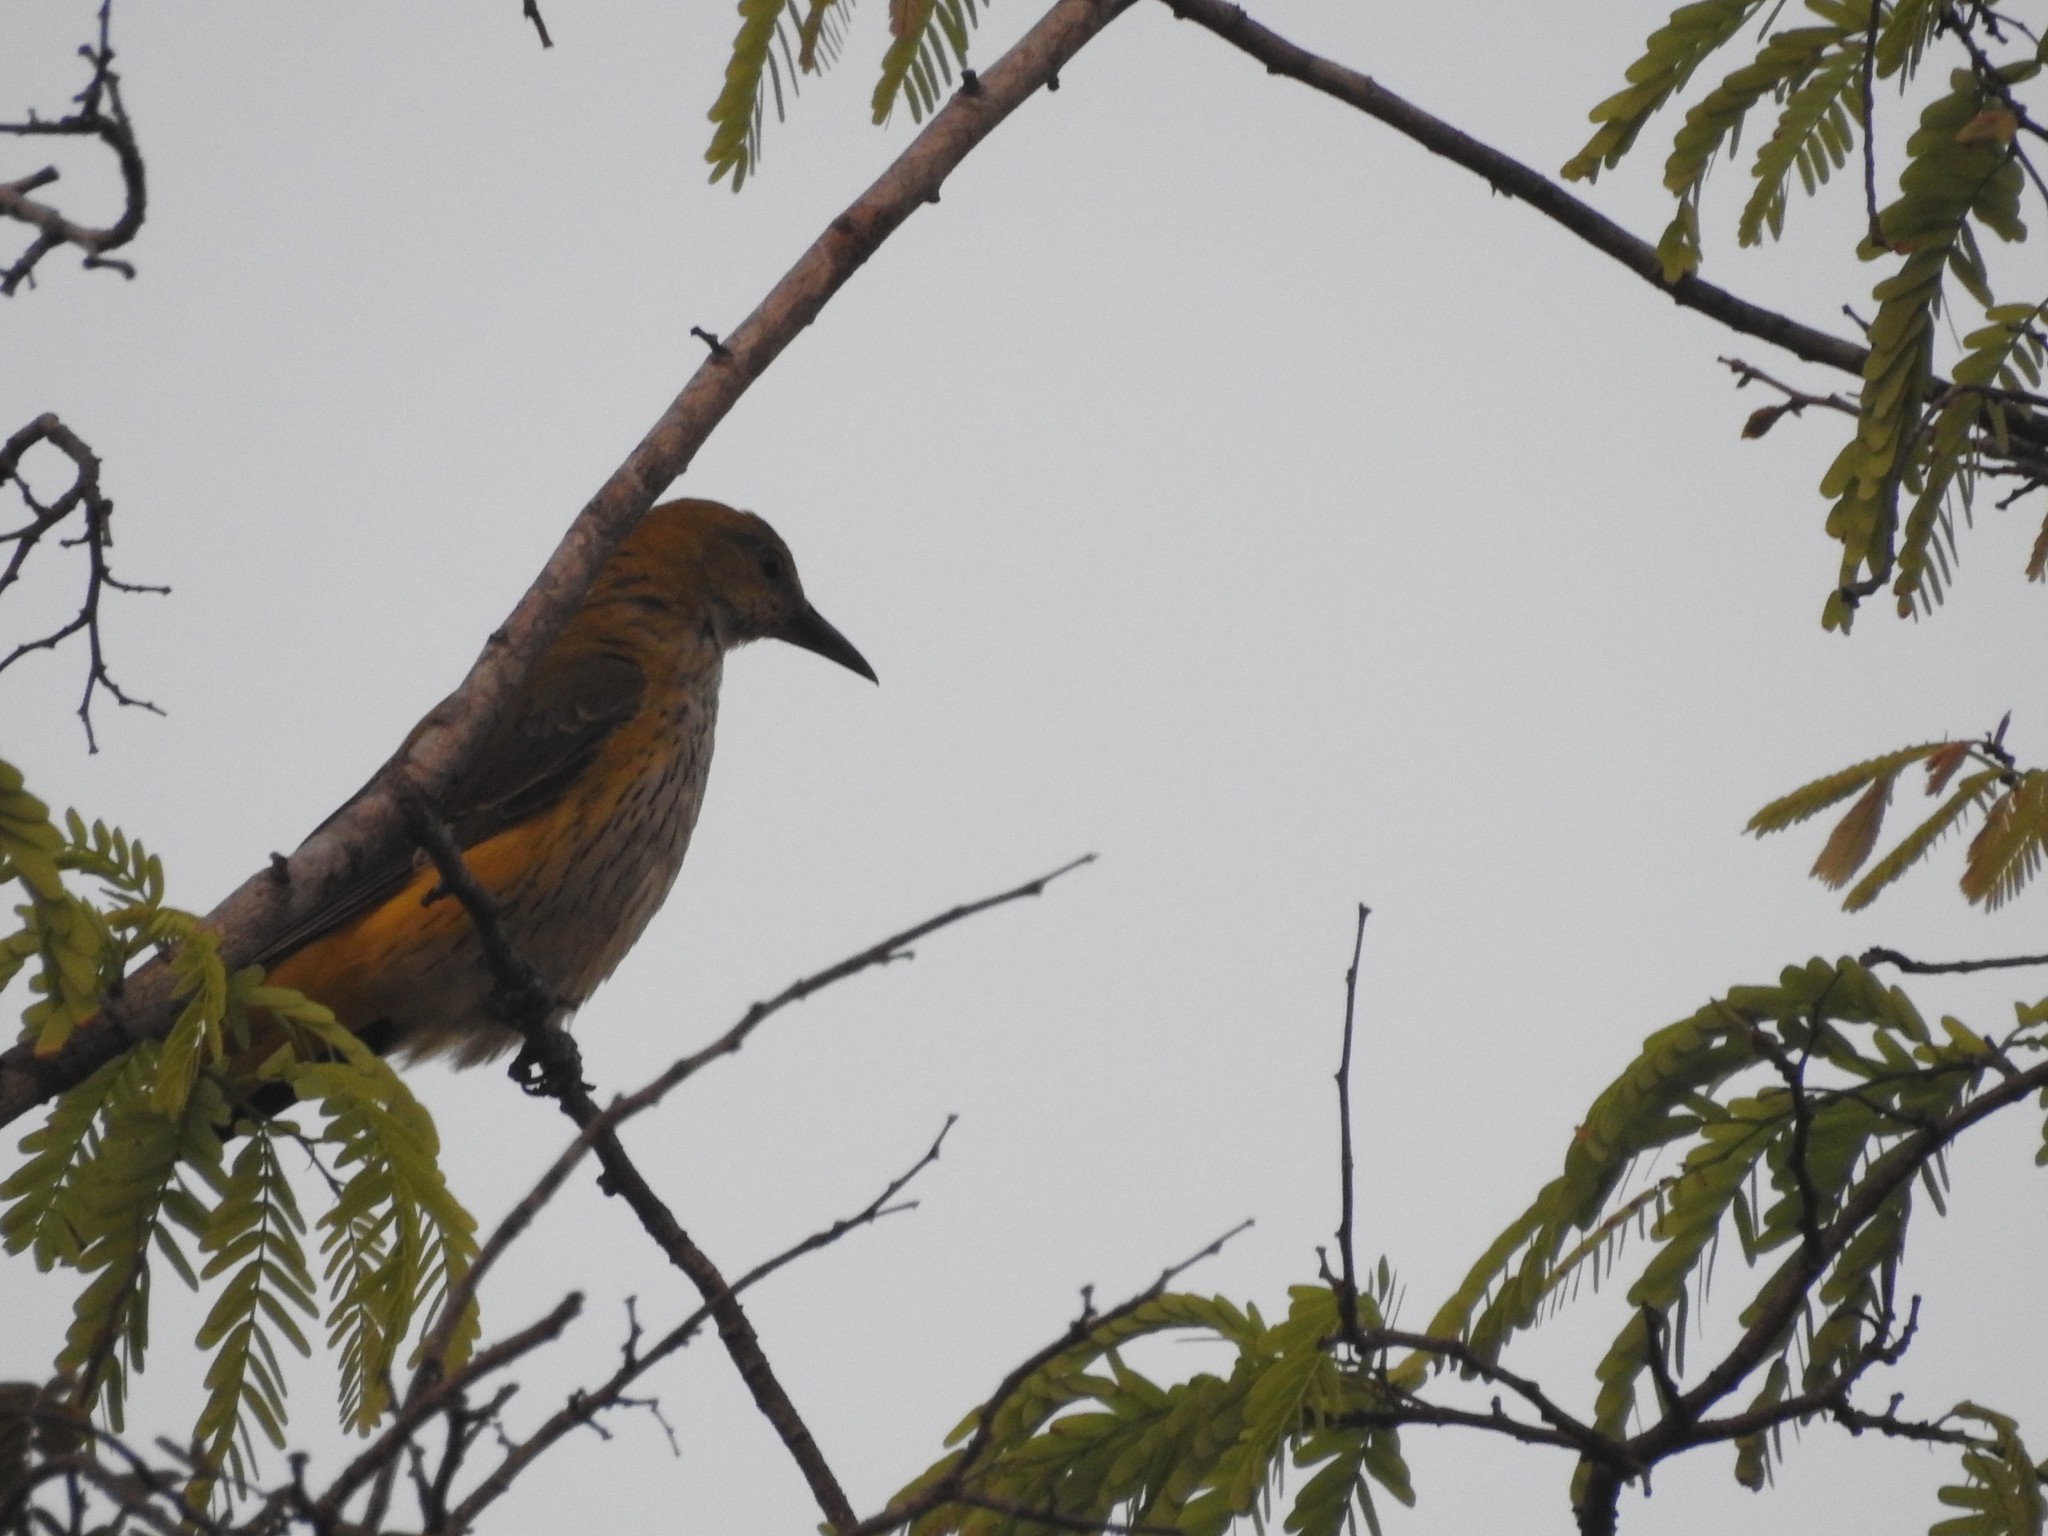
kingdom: Animalia
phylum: Chordata
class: Aves
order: Passeriformes
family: Oriolidae
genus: Oriolus
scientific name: Oriolus kundoo
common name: Indian golden oriole
